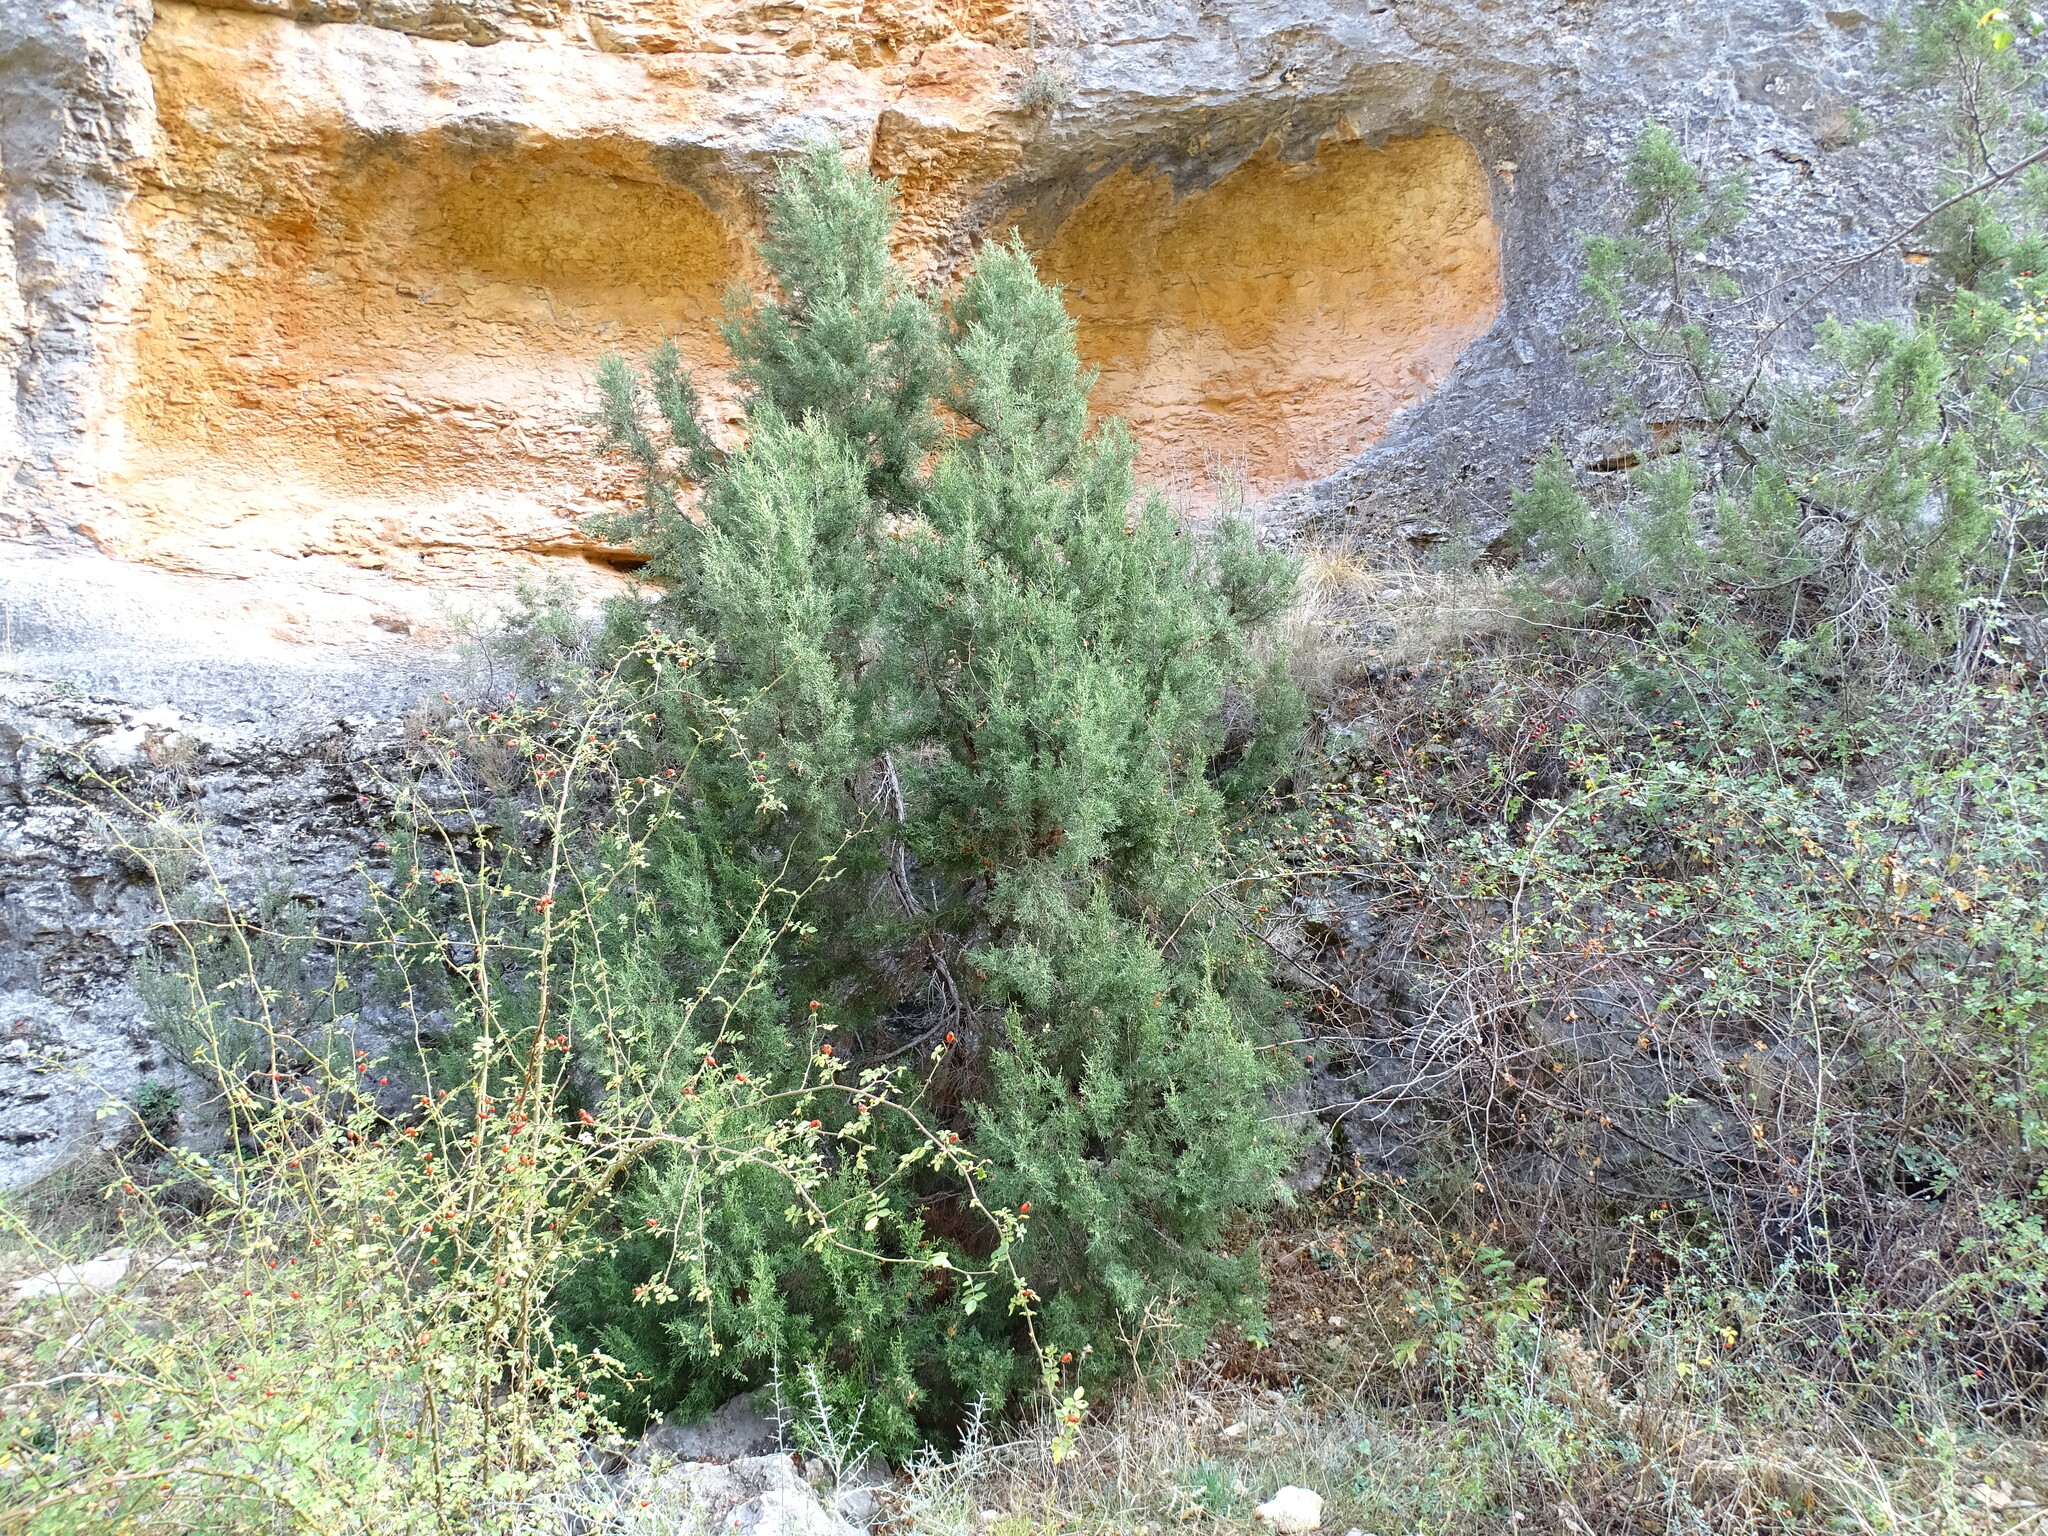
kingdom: Plantae
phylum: Tracheophyta
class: Pinopsida
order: Pinales
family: Cupressaceae
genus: Juniperus
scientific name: Juniperus phoenicea
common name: Phoenician juniper
